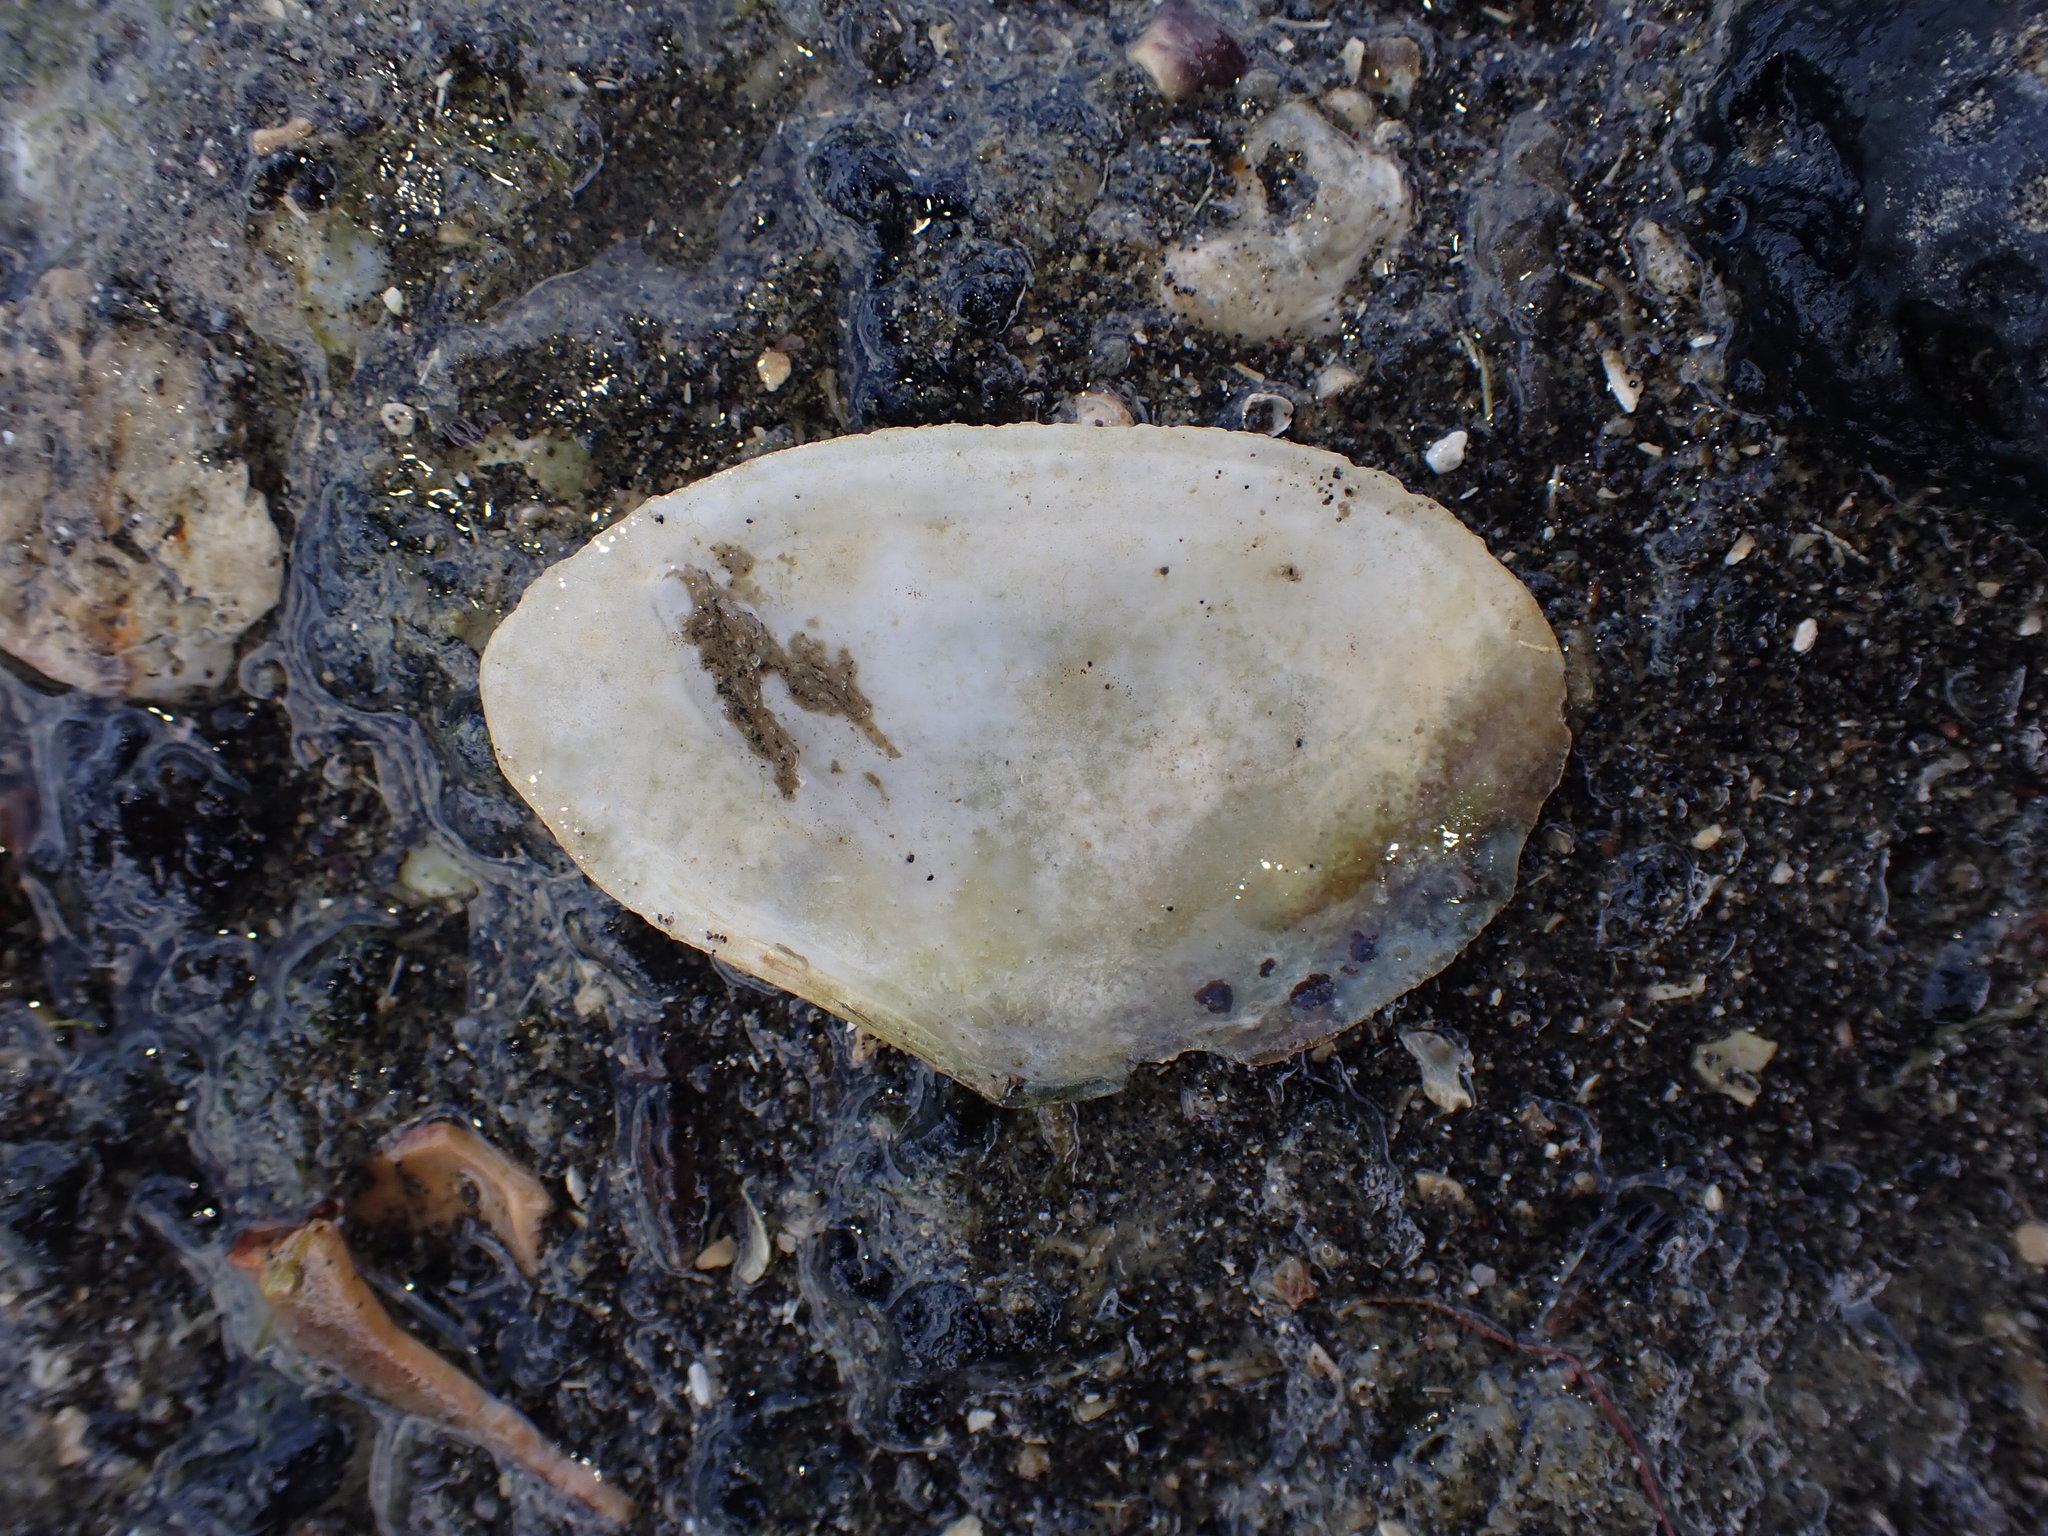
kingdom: Animalia
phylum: Mollusca
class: Bivalvia
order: Cardiida
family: Tellinidae
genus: Bartschicoma
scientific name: Bartschicoma edgari
